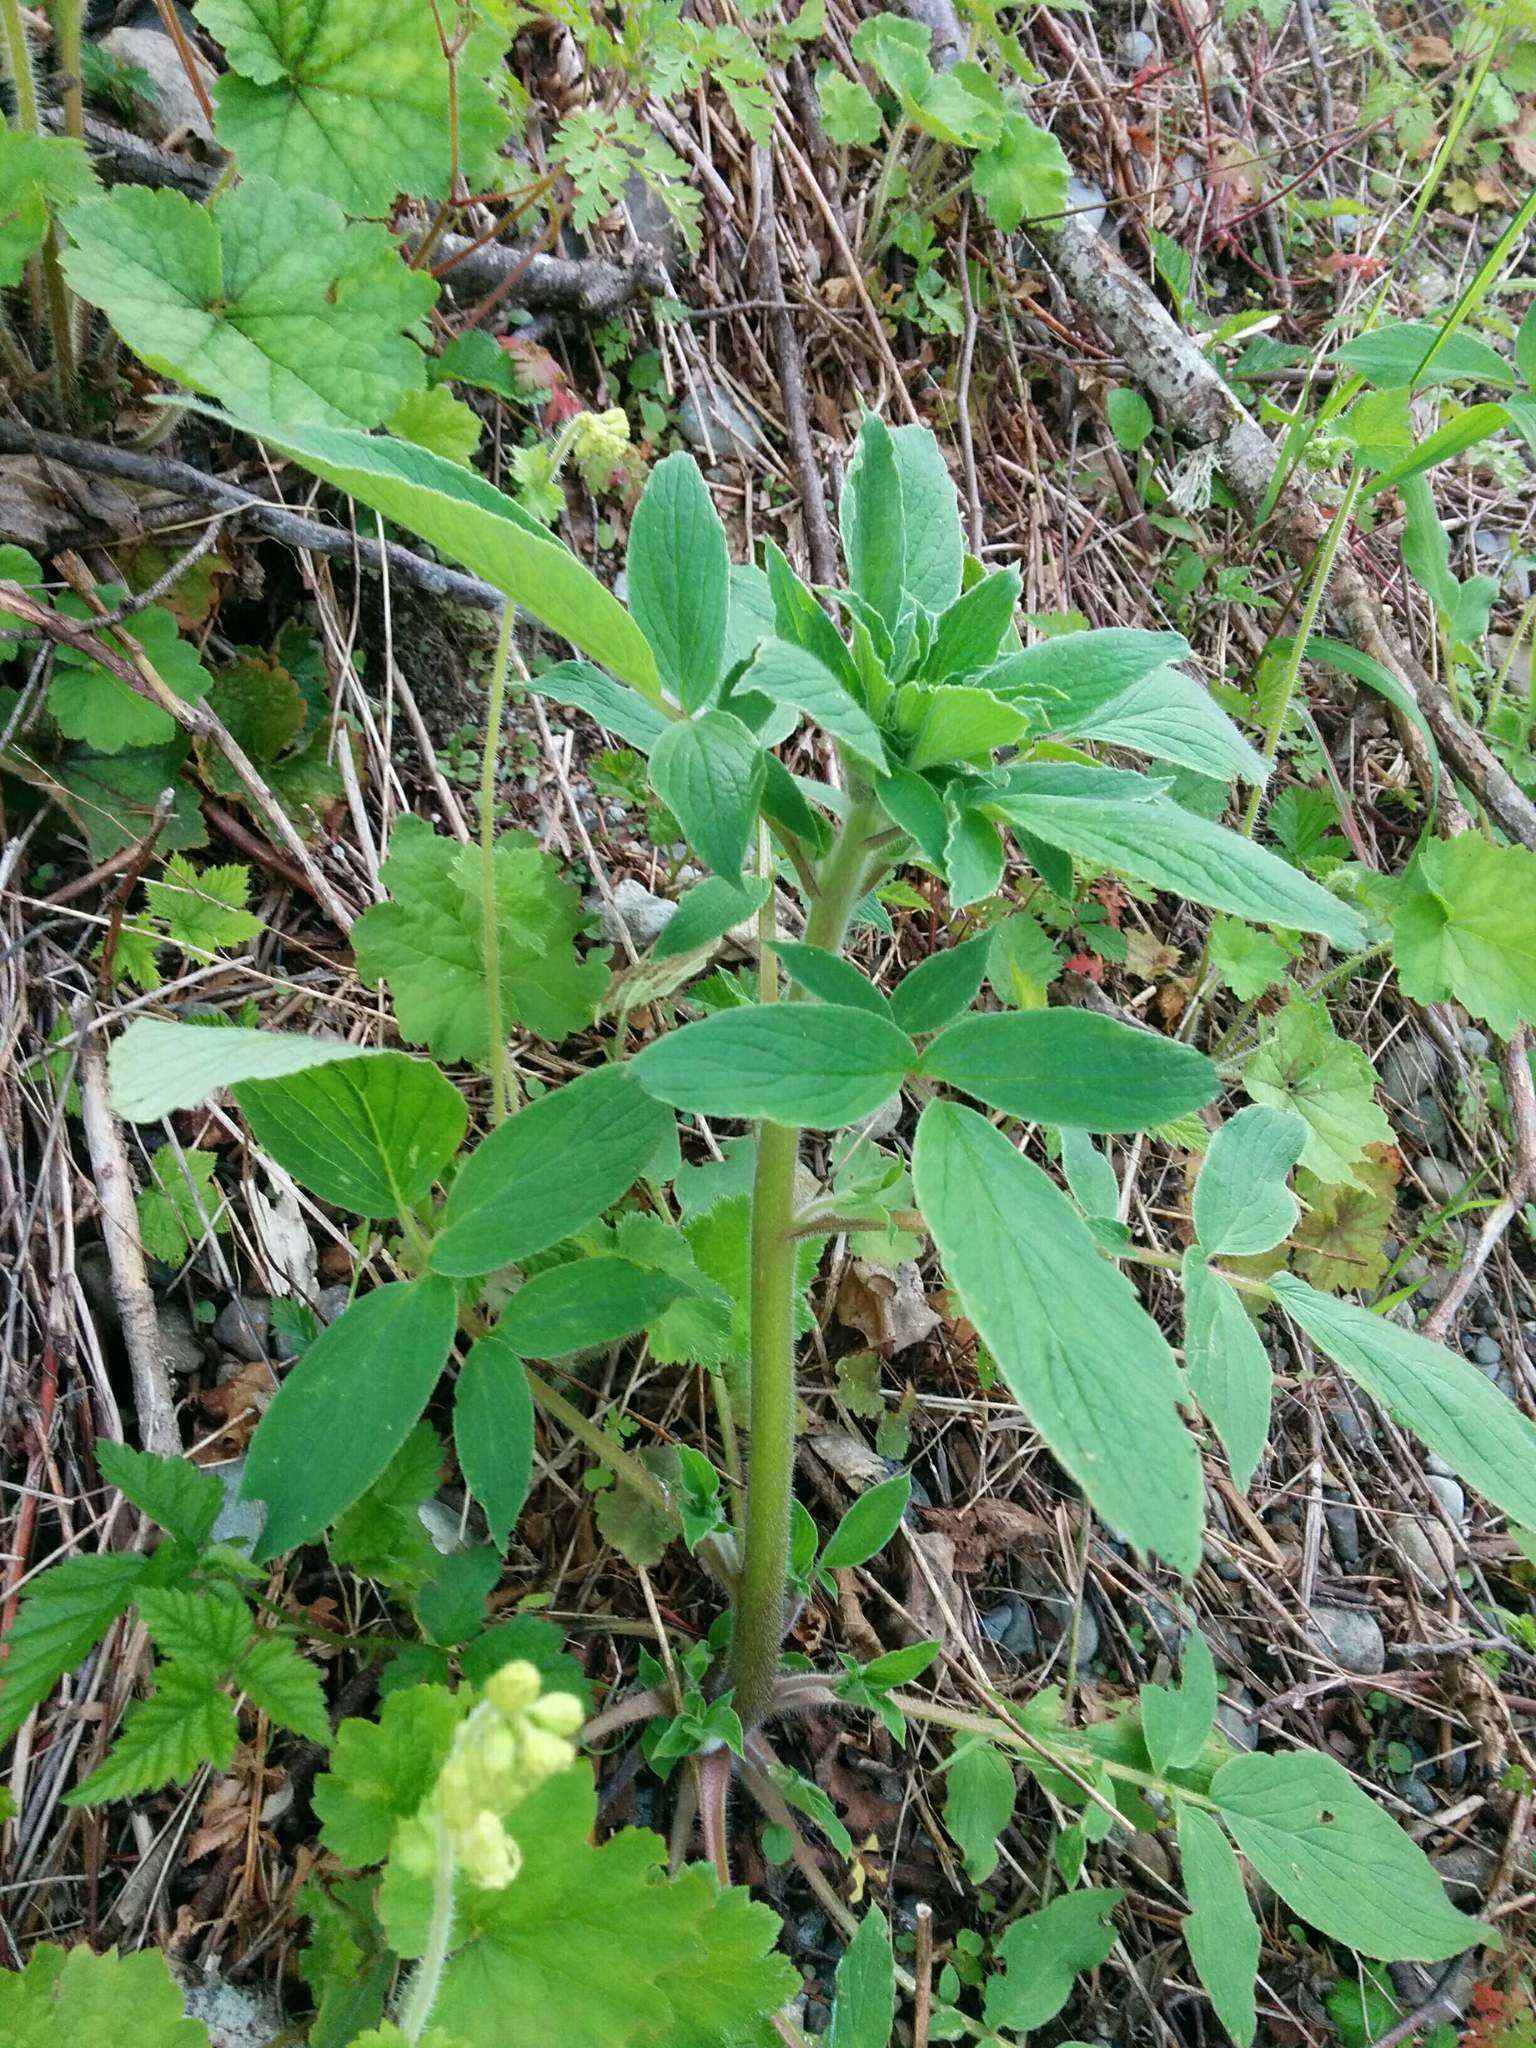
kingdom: Plantae
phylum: Tracheophyta
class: Magnoliopsida
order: Boraginales
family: Hydrophyllaceae
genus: Phacelia
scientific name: Phacelia nemoralis
